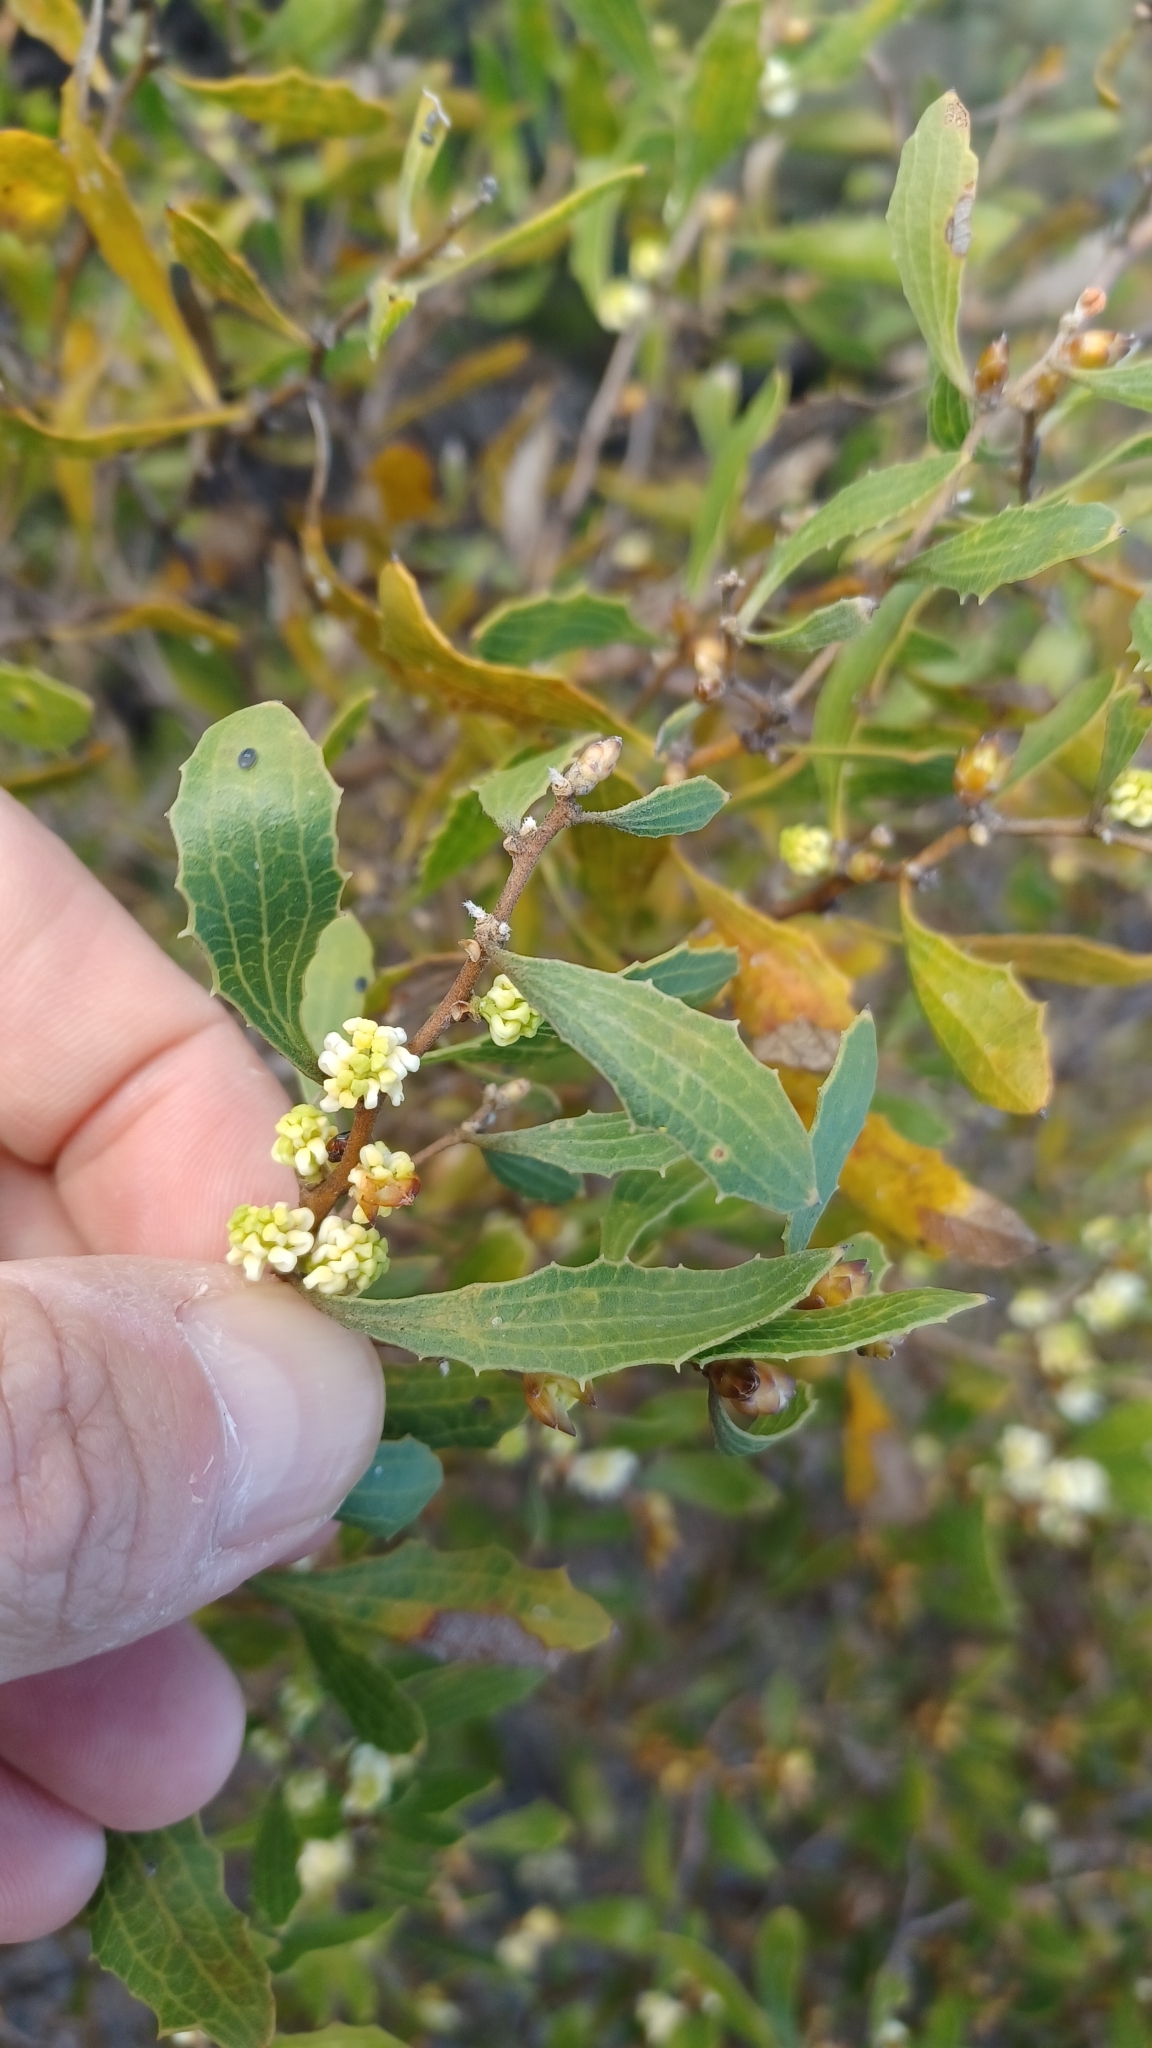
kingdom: Plantae
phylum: Tracheophyta
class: Magnoliopsida
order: Proteales
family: Proteaceae
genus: Hakea
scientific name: Hakea anadenia
